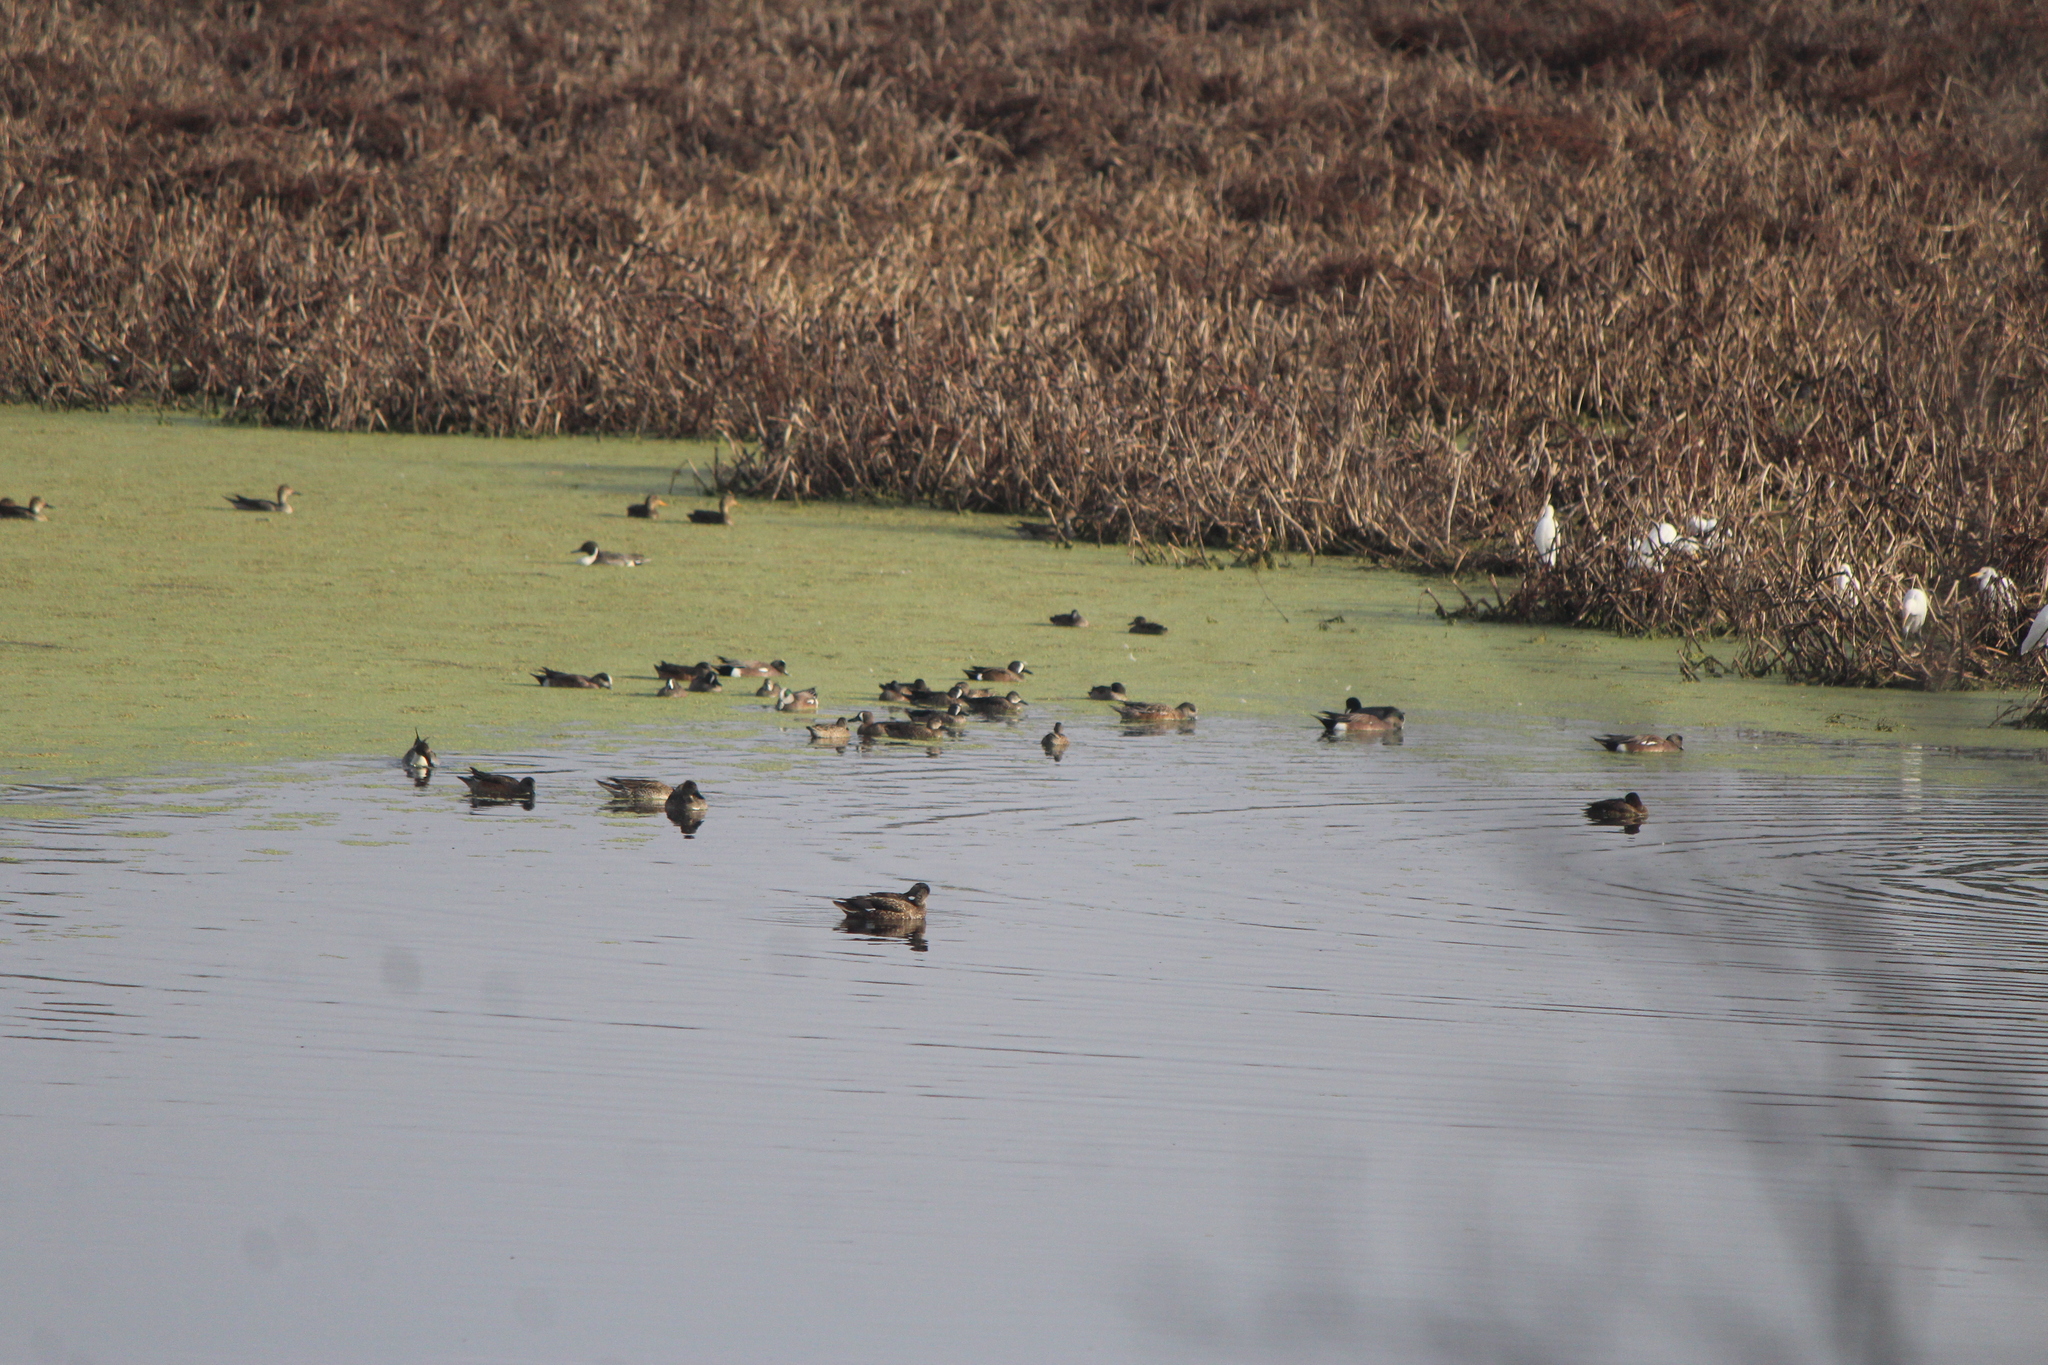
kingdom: Animalia
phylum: Chordata
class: Aves
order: Anseriformes
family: Anatidae
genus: Spatula
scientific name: Spatula discors
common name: Blue-winged teal
